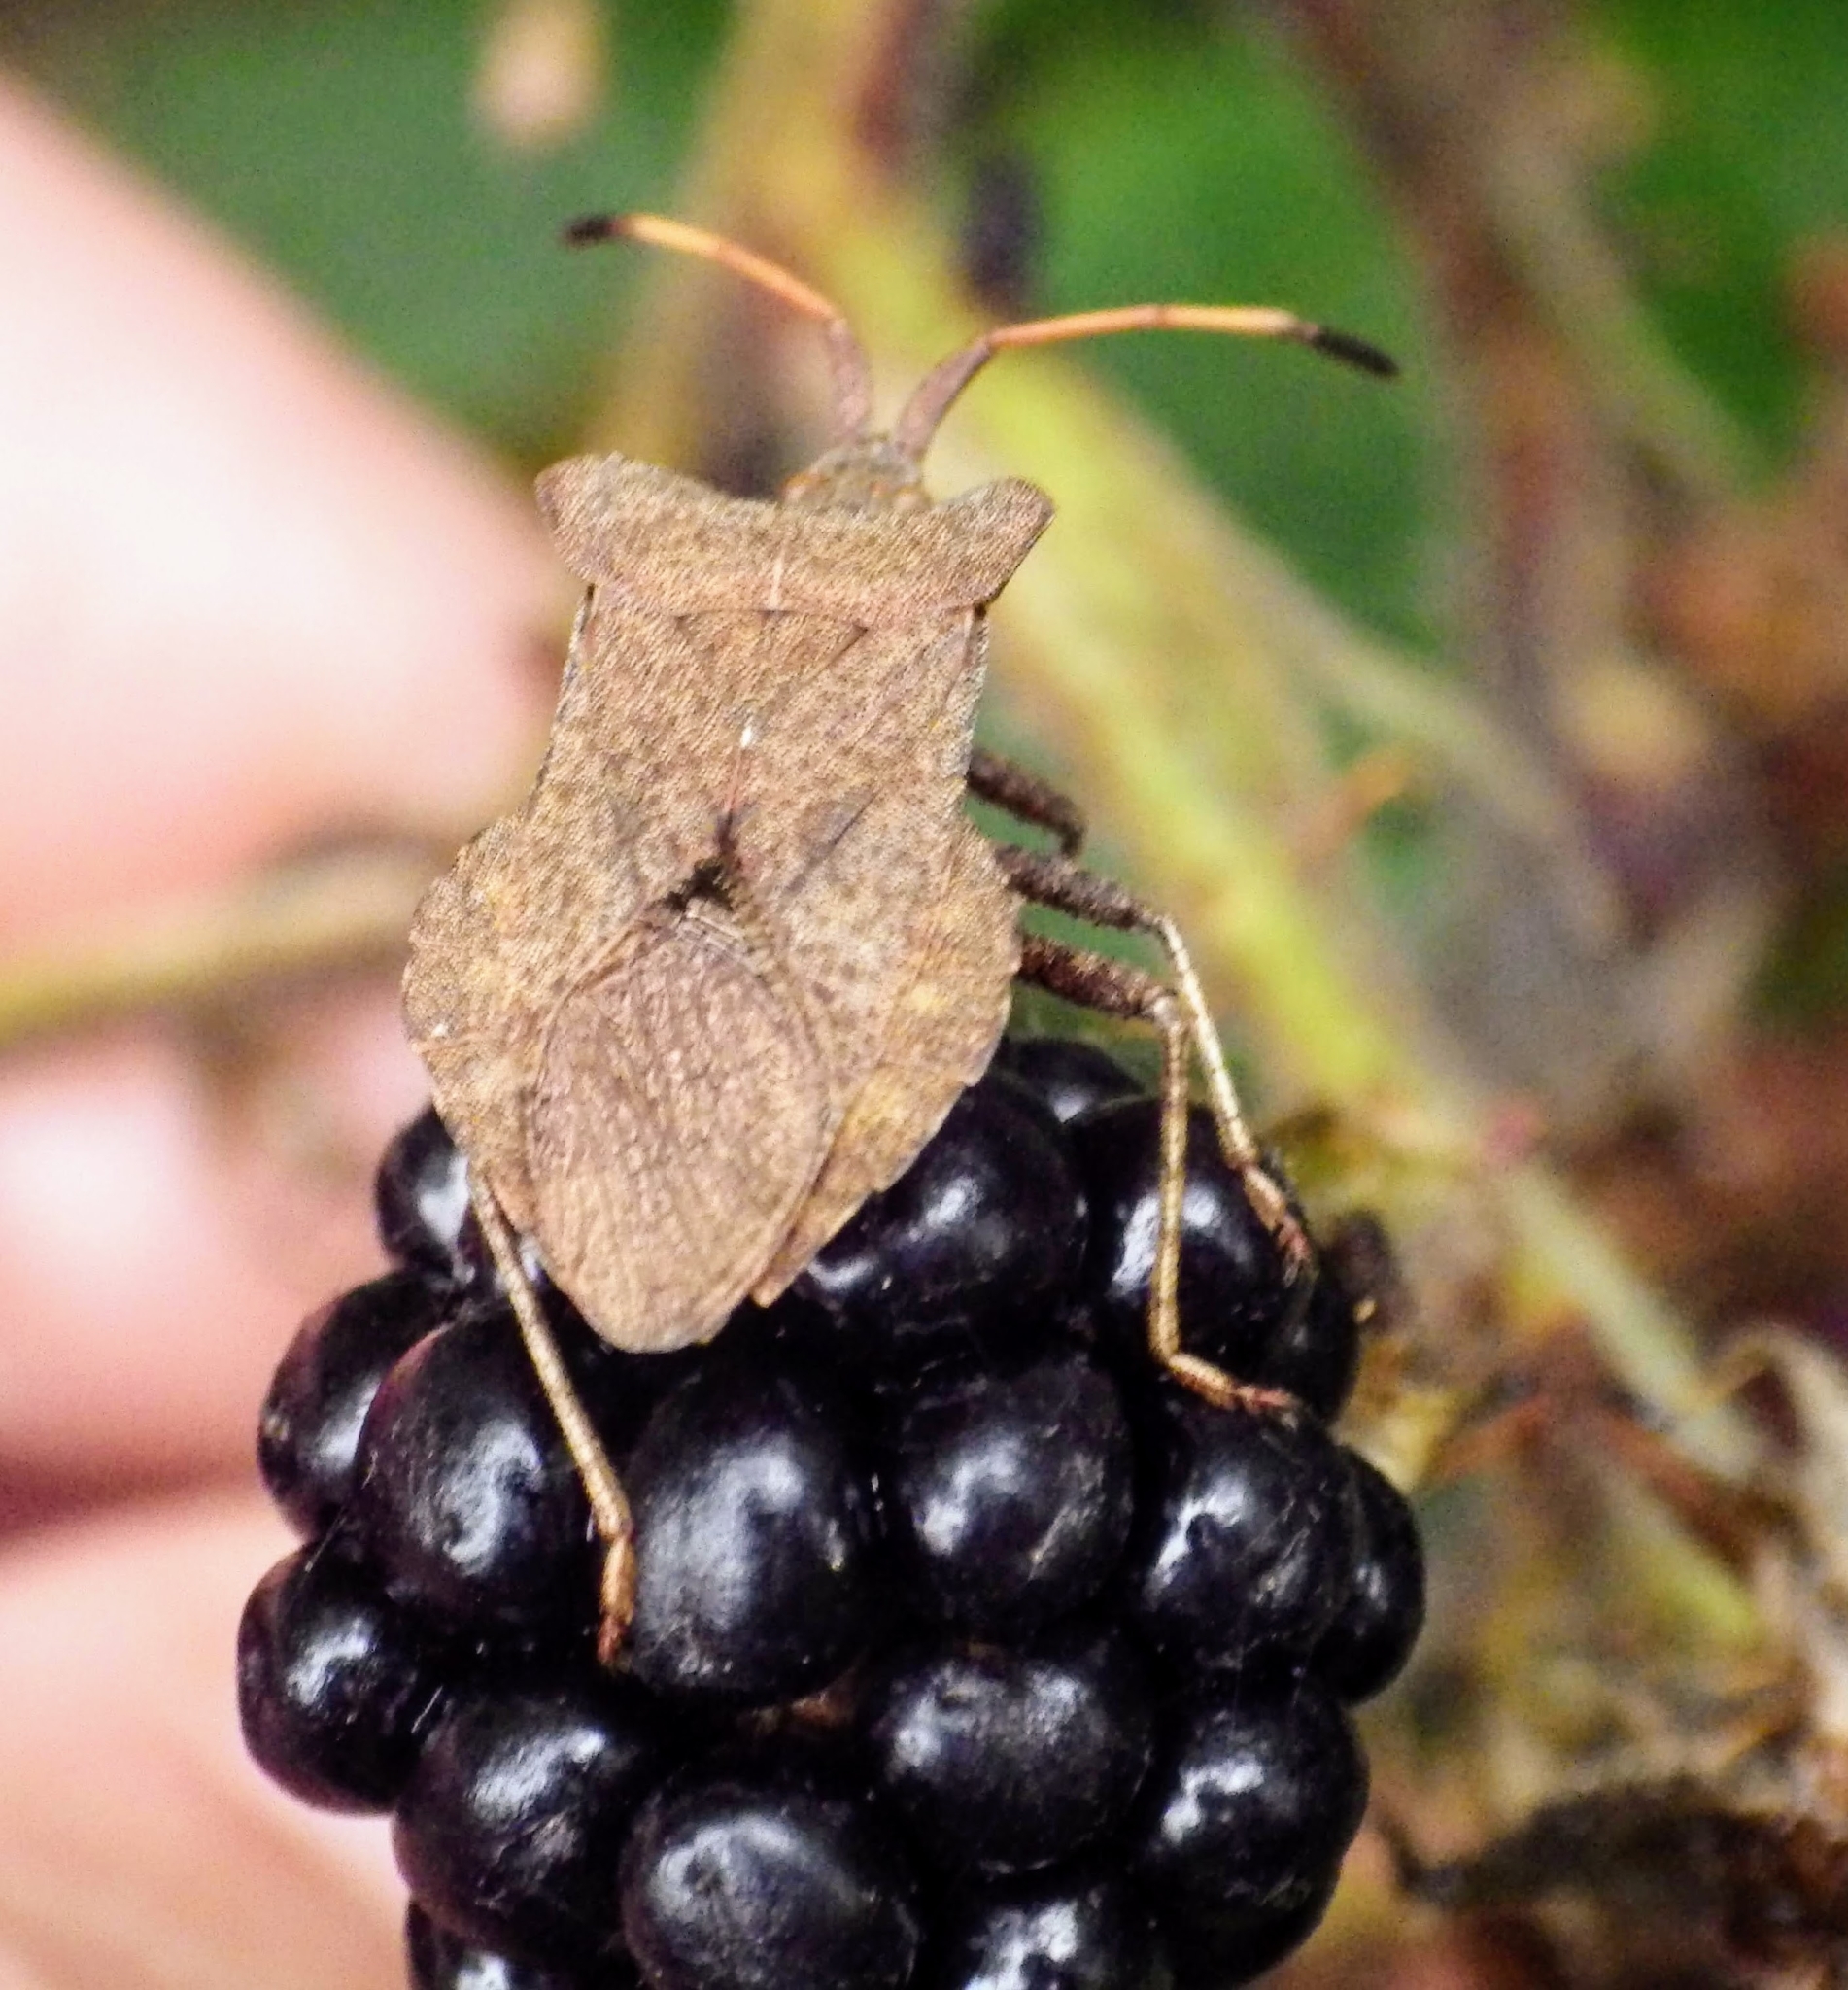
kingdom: Animalia
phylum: Arthropoda
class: Insecta
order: Hemiptera
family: Coreidae
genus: Coreus
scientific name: Coreus marginatus
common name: Dock bug
